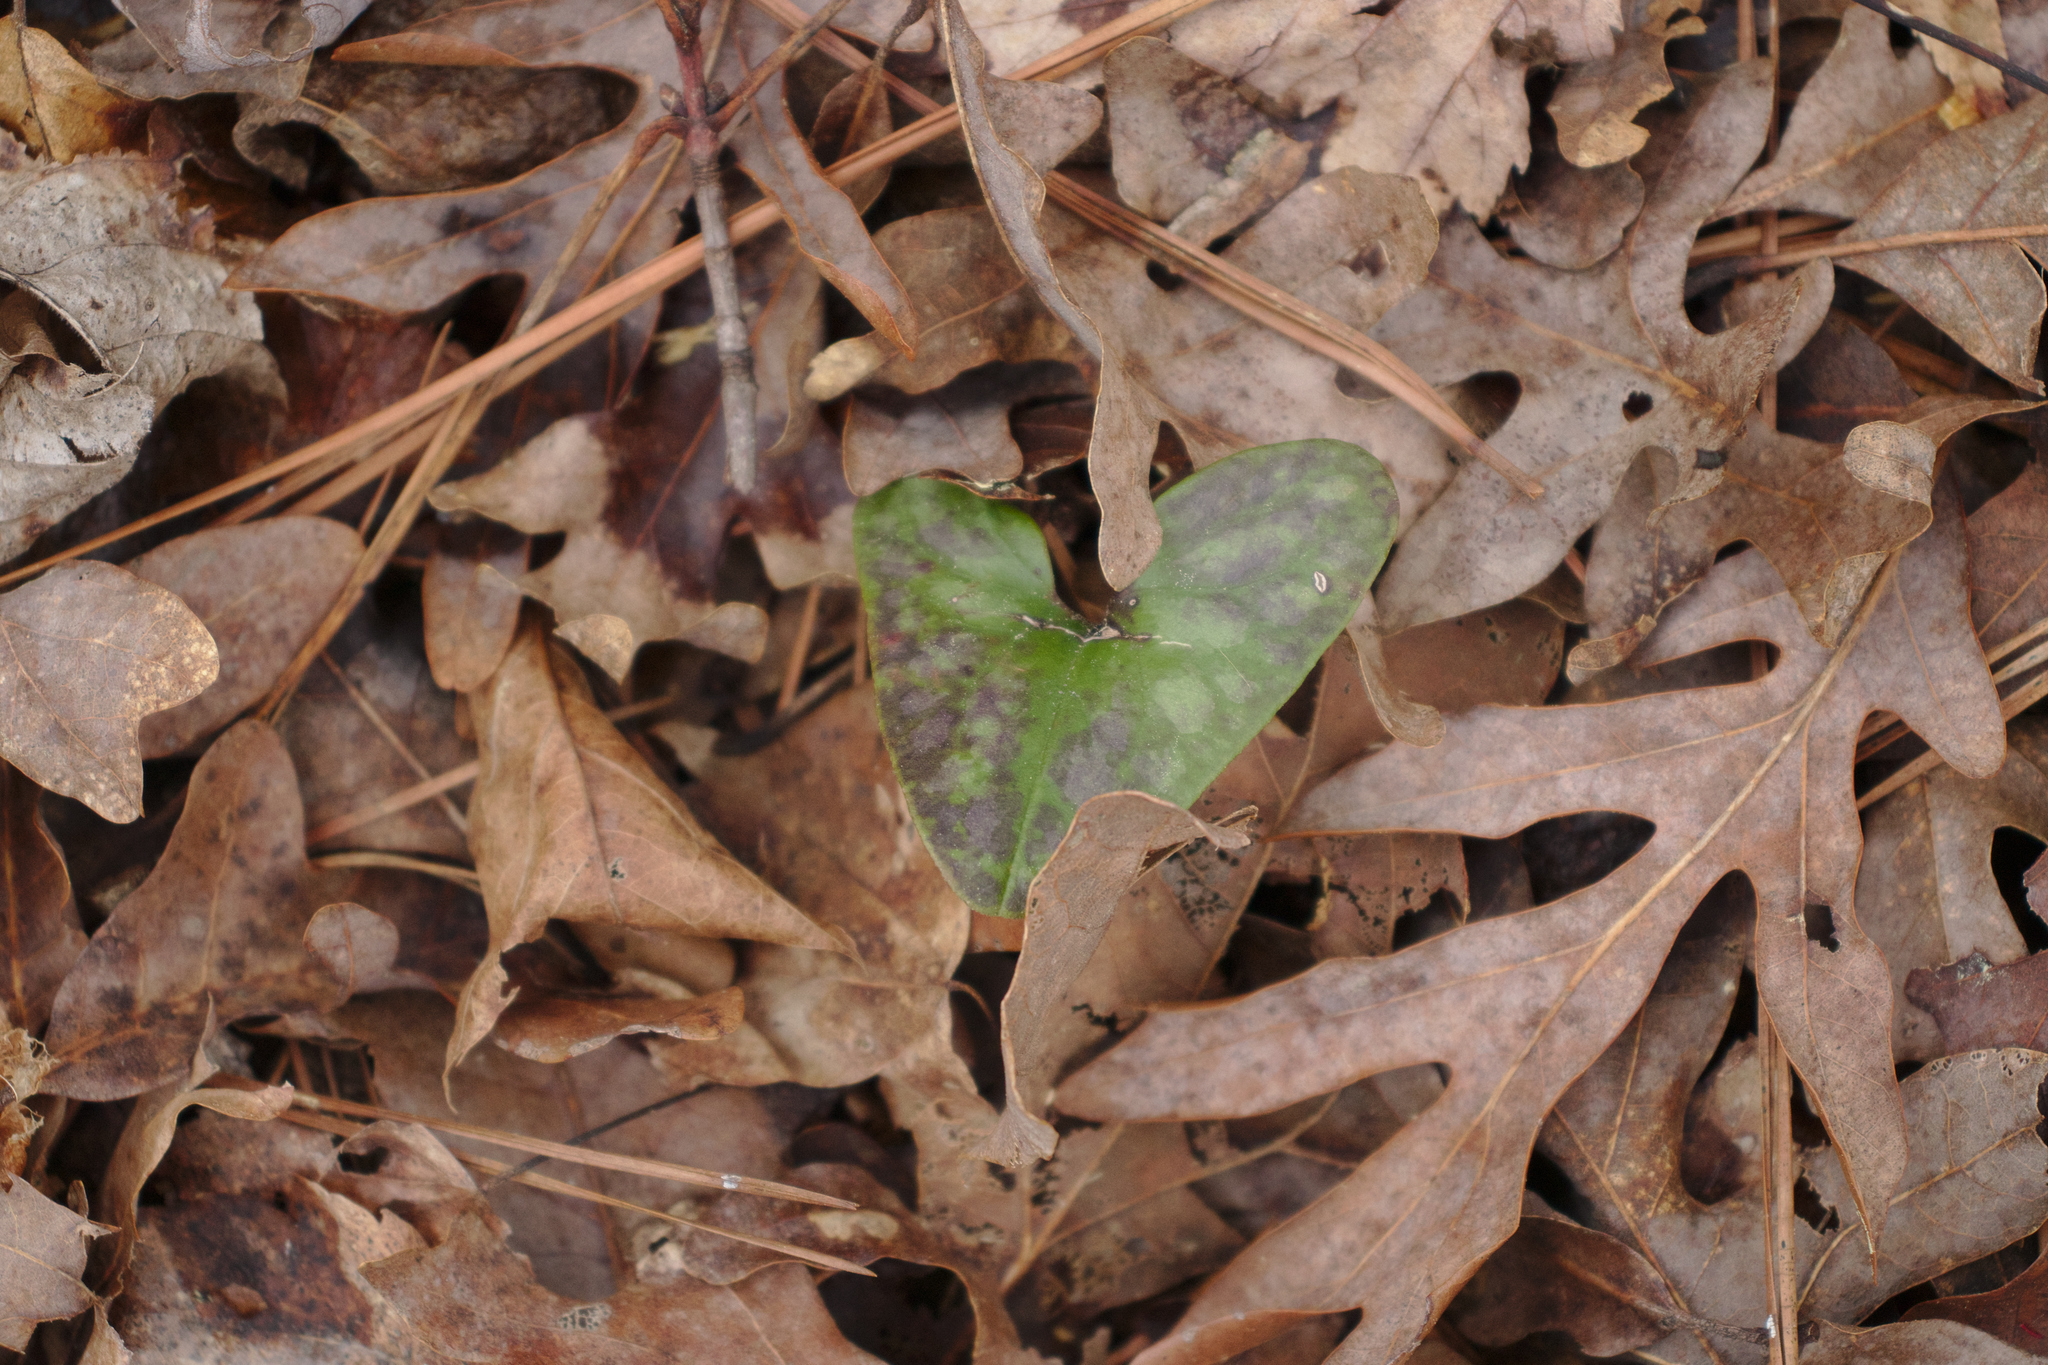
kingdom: Plantae
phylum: Tracheophyta
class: Magnoliopsida
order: Piperales
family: Aristolochiaceae
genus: Hexastylis
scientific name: Hexastylis arifolia
